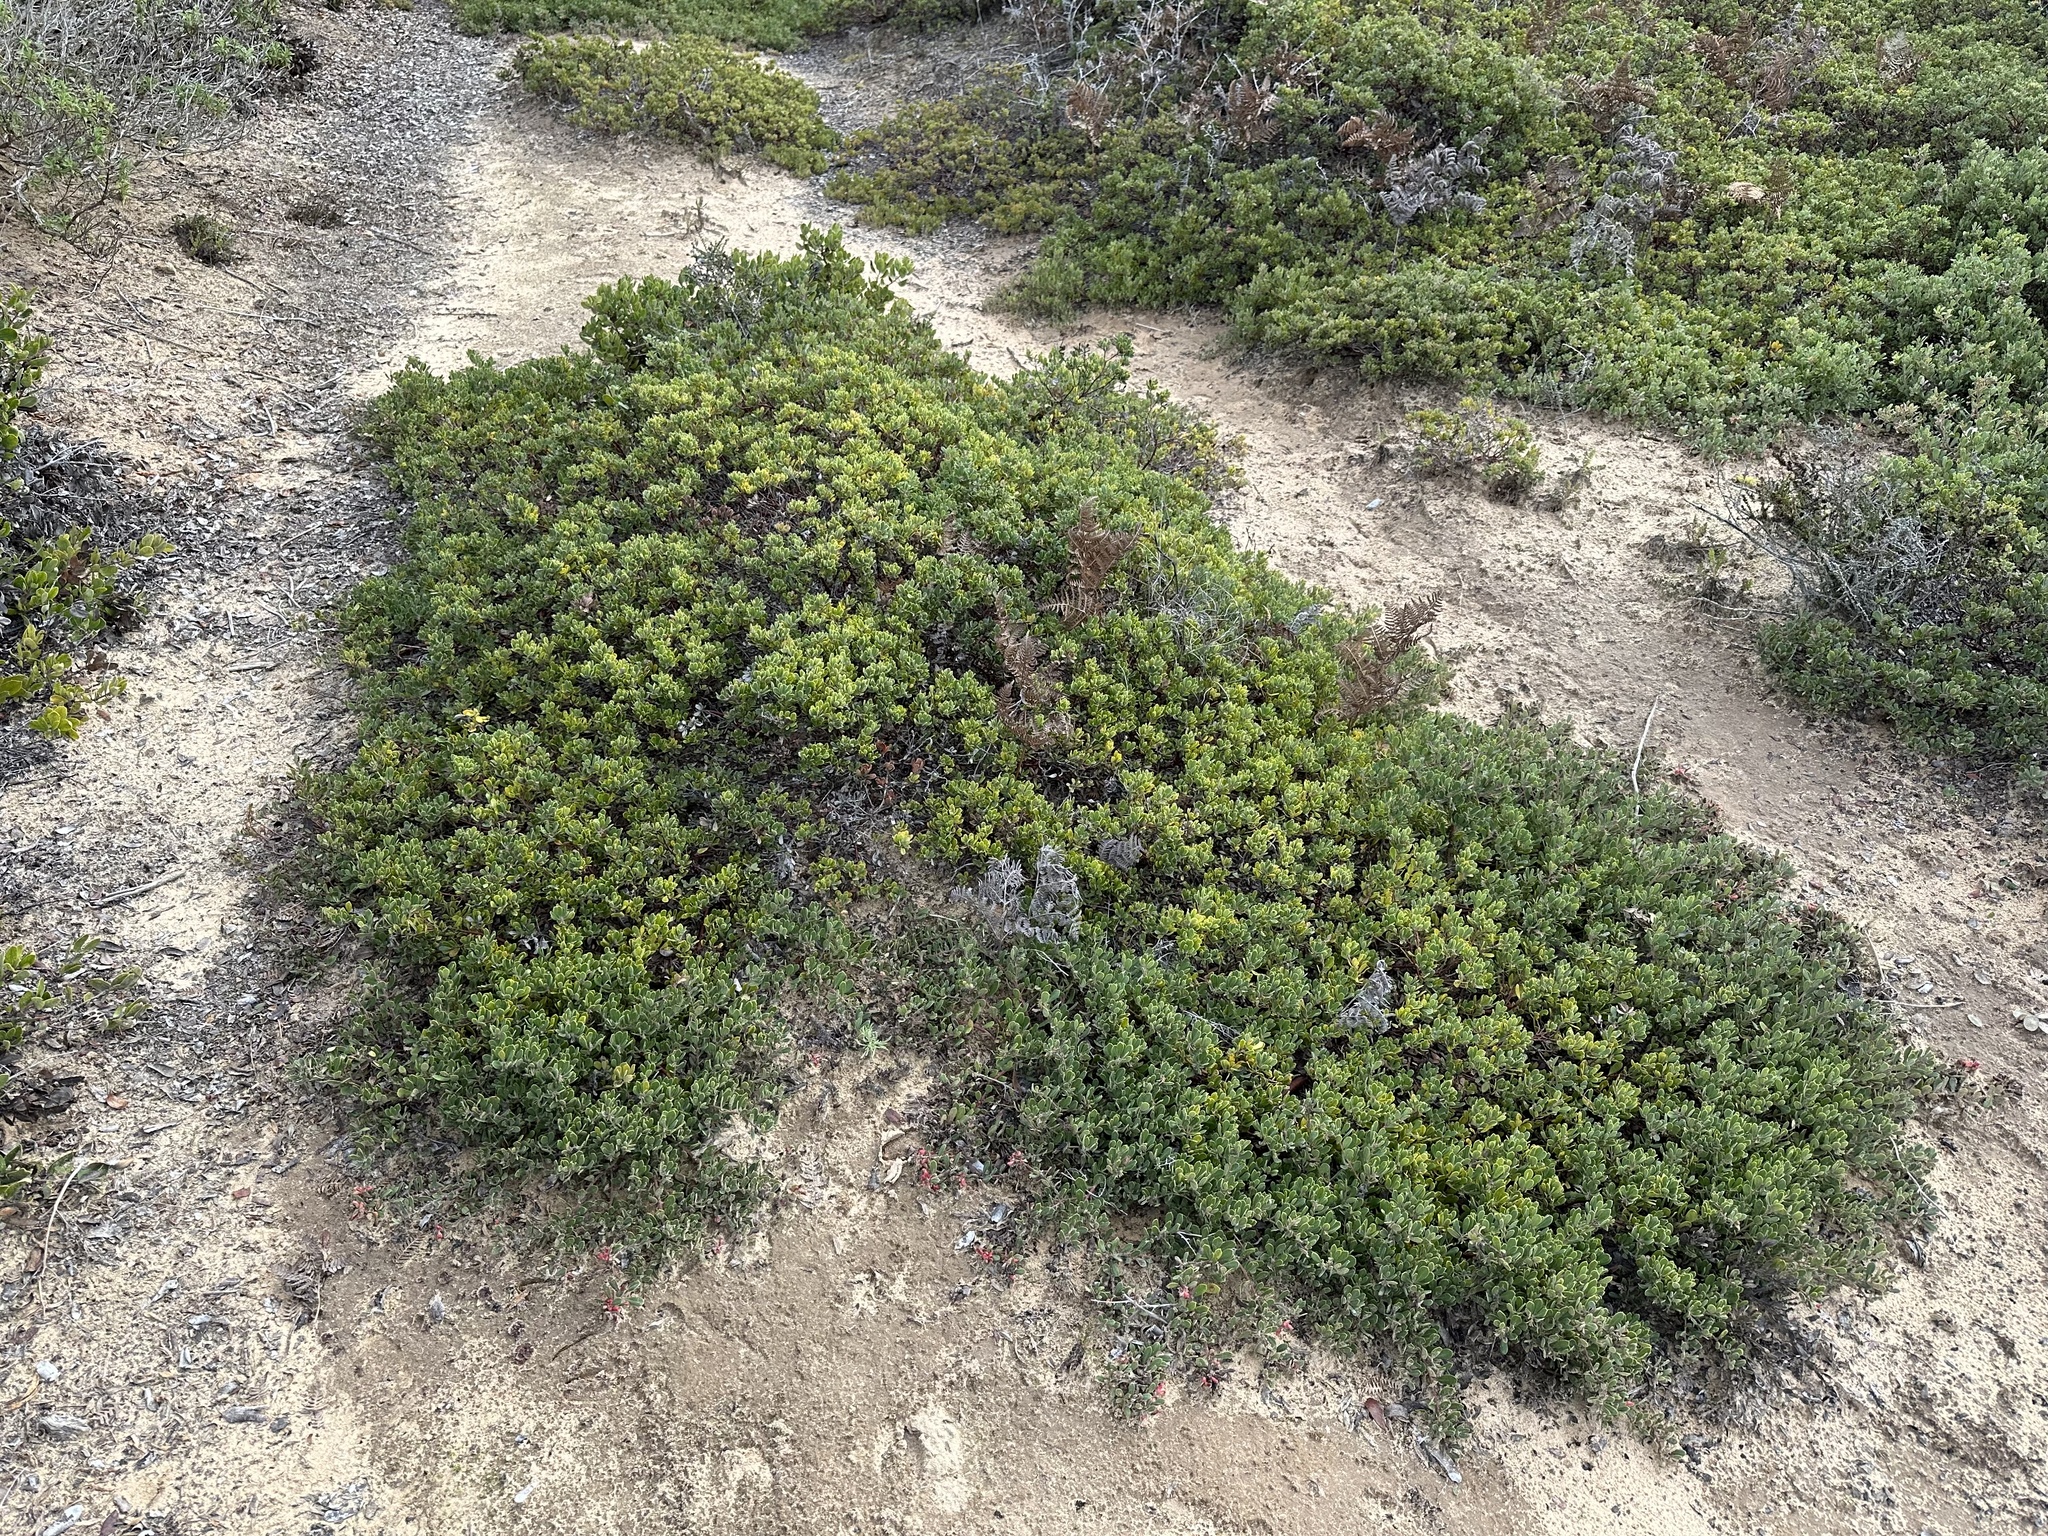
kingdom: Plantae
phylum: Tracheophyta
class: Magnoliopsida
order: Ericales
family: Ericaceae
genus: Arctostaphylos
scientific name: Arctostaphylos pumila
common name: Sandmat manzanita
